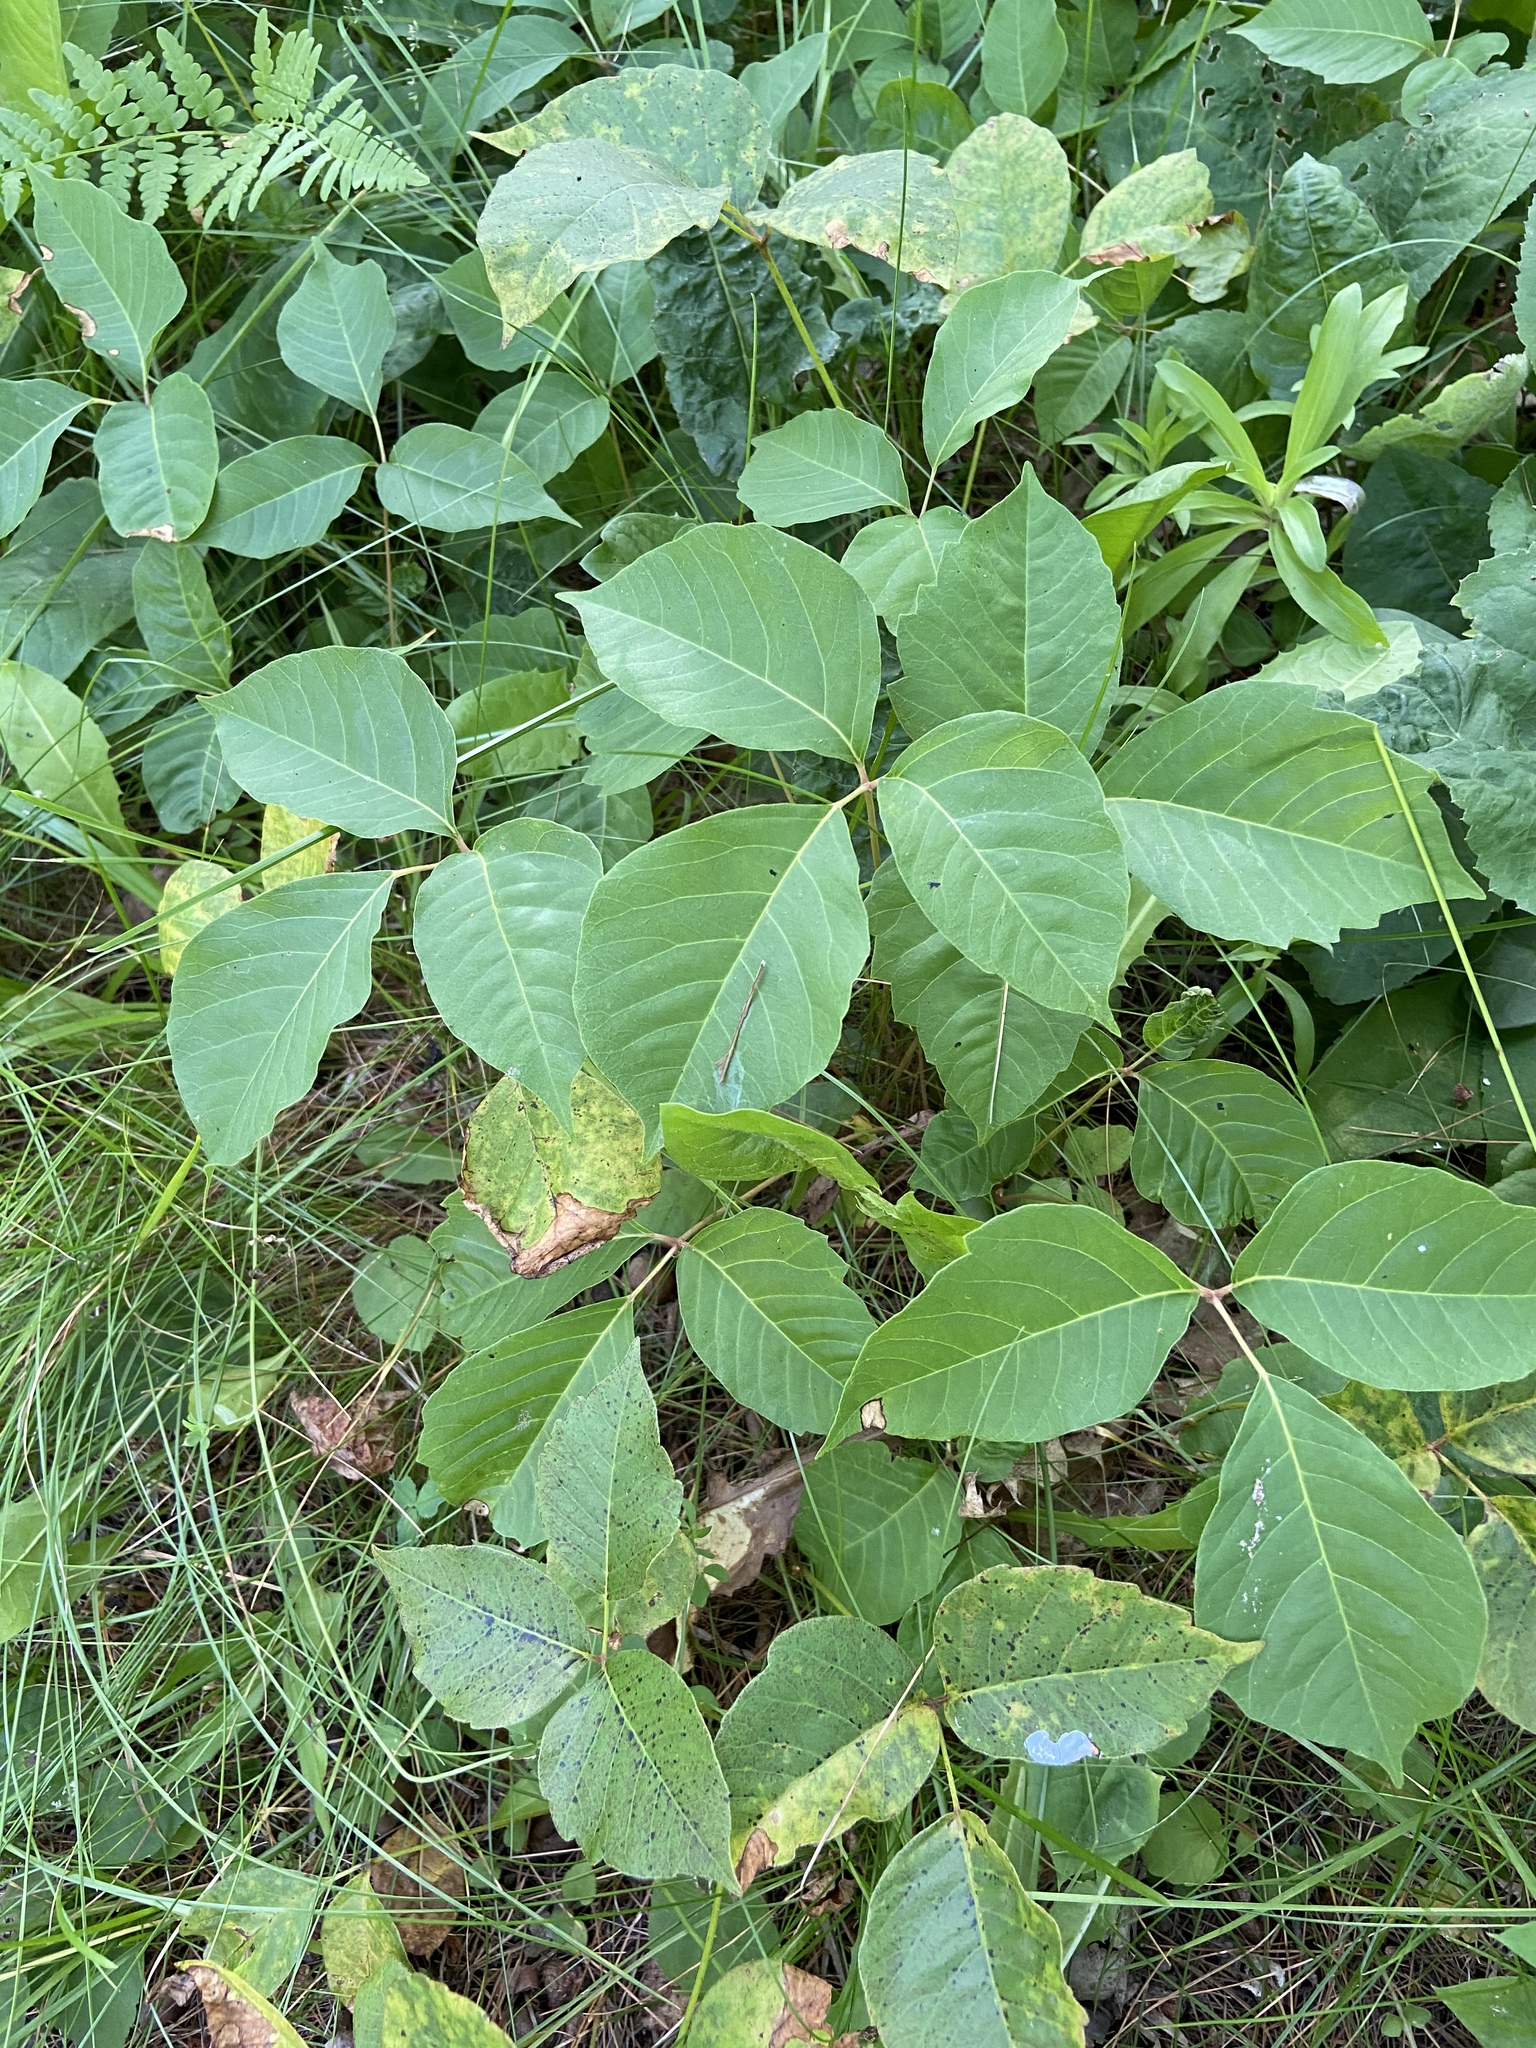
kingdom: Plantae
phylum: Tracheophyta
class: Magnoliopsida
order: Sapindales
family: Anacardiaceae
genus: Toxicodendron
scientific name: Toxicodendron rydbergii
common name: Rydberg's poison-ivy
